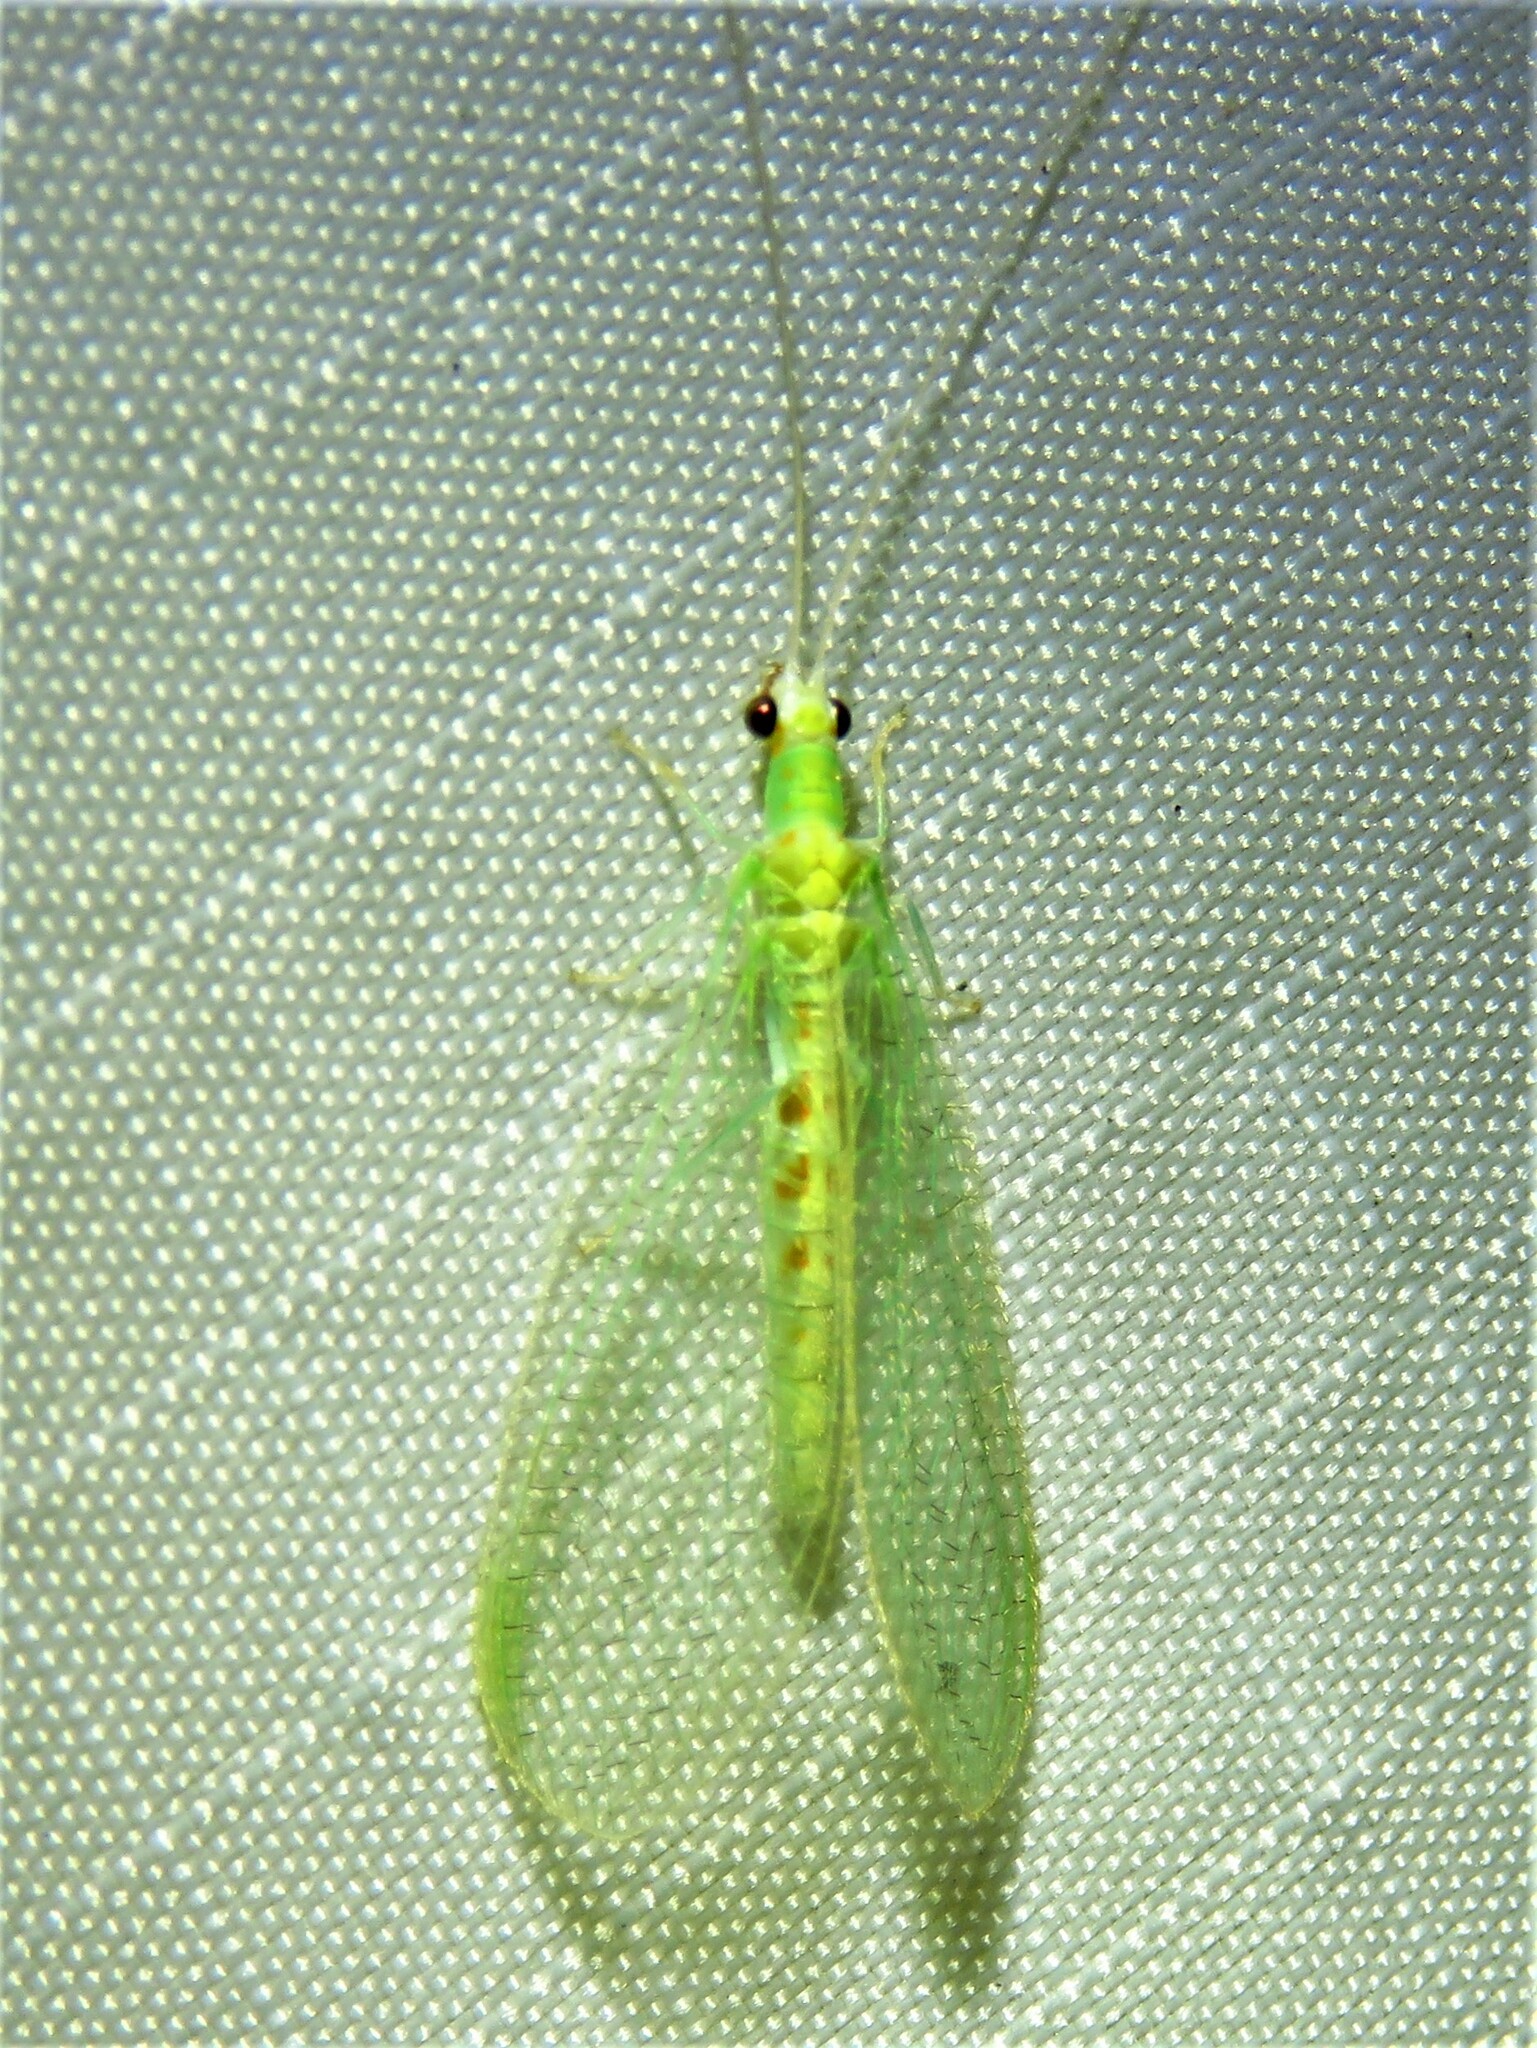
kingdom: Animalia
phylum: Arthropoda
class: Insecta
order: Neuroptera
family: Chrysopidae
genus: Chrysopa
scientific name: Chrysopa quadripunctata
